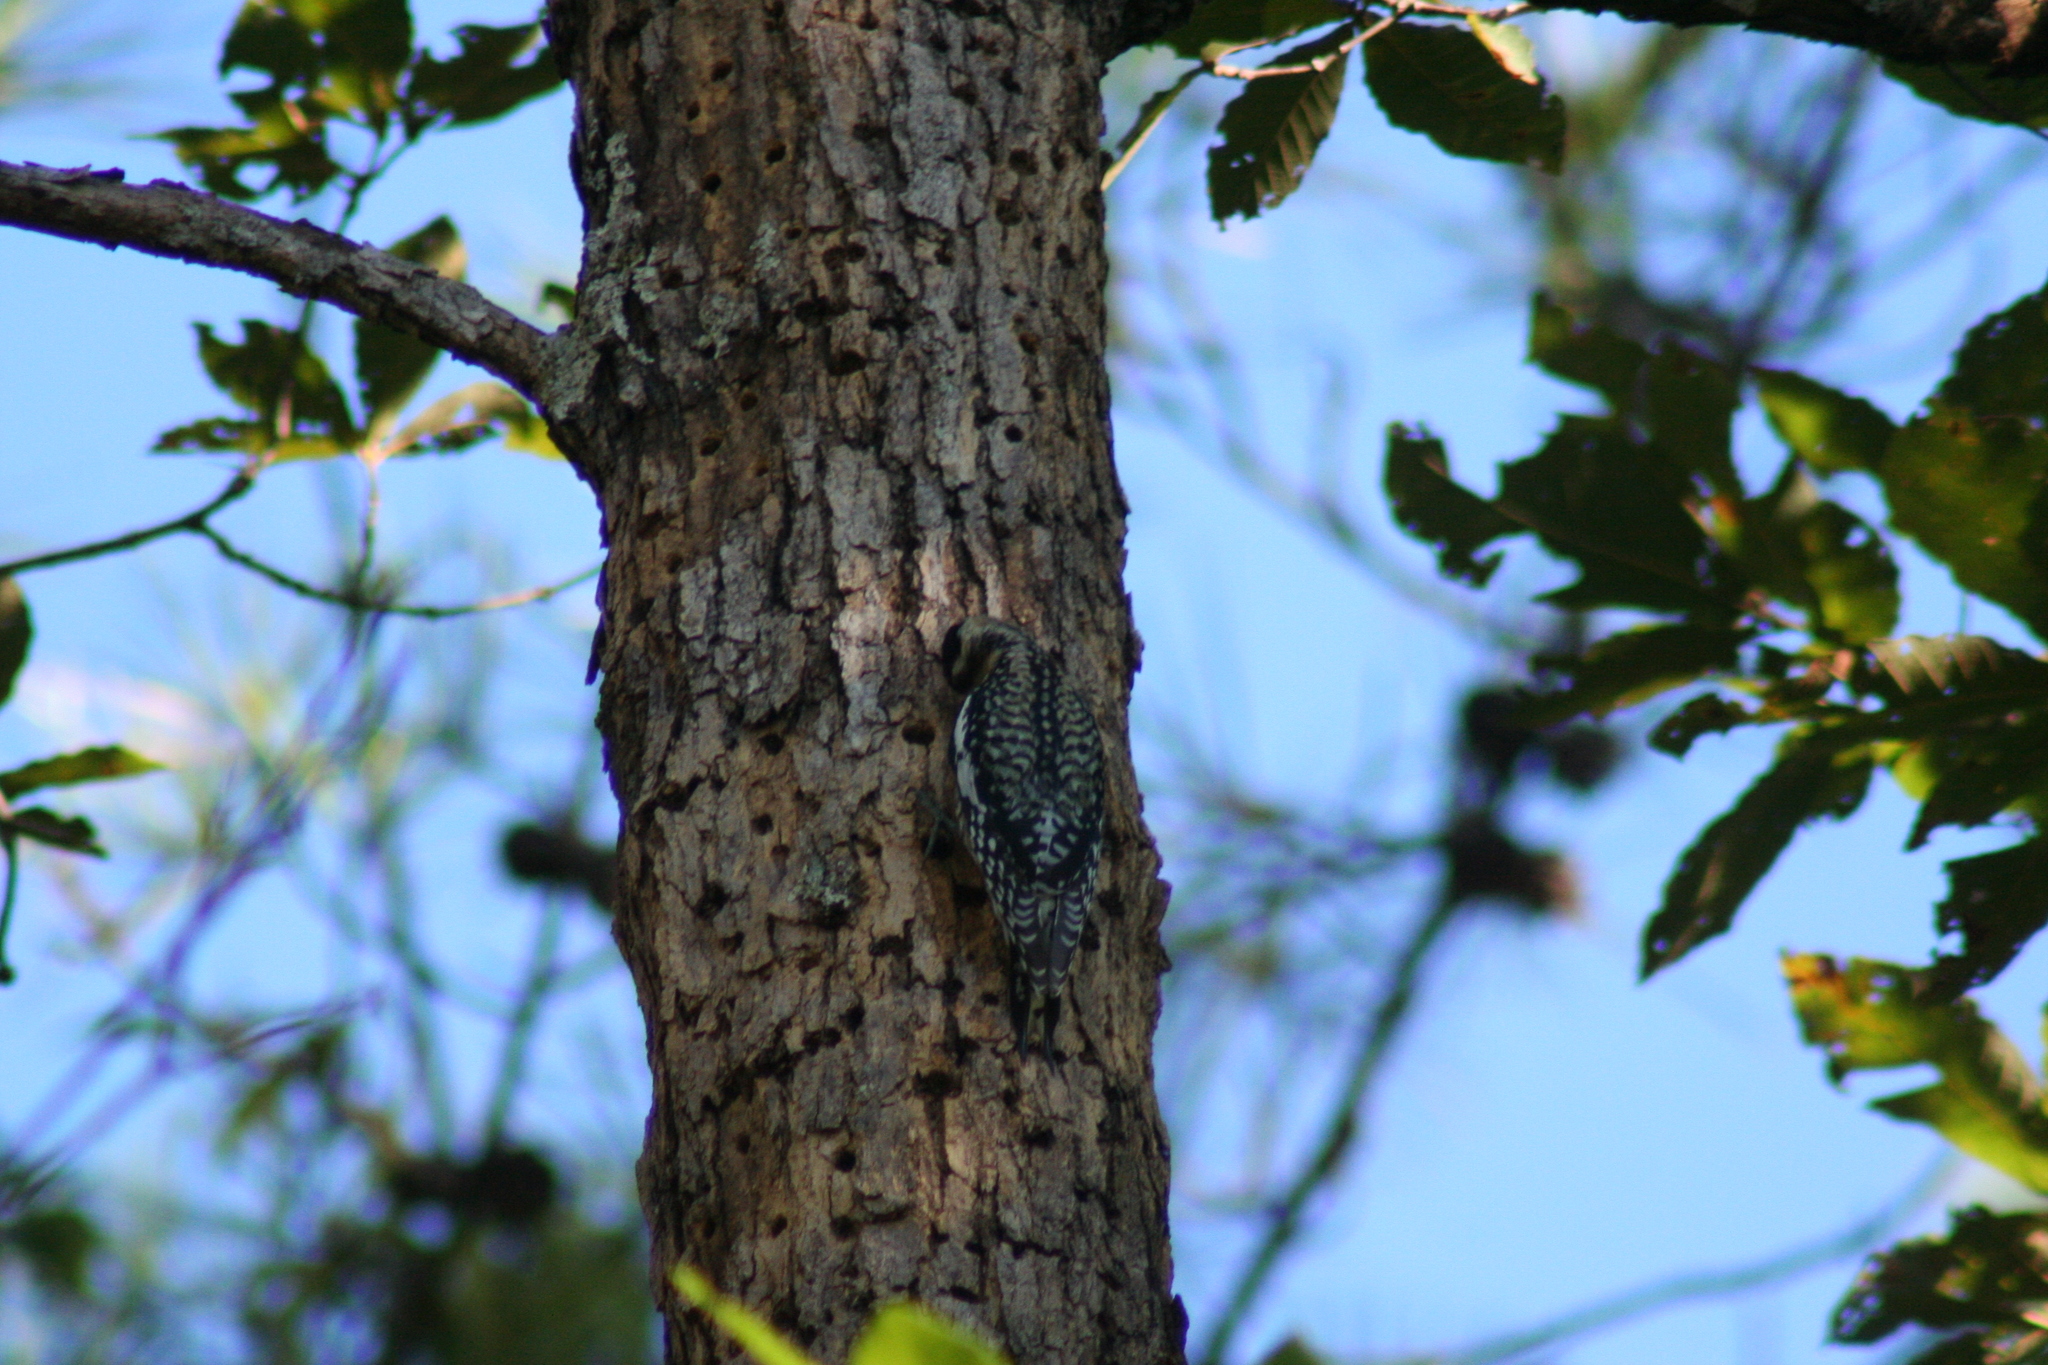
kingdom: Animalia
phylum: Chordata
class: Aves
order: Piciformes
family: Picidae
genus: Sphyrapicus
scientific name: Sphyrapicus varius
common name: Yellow-bellied sapsucker
